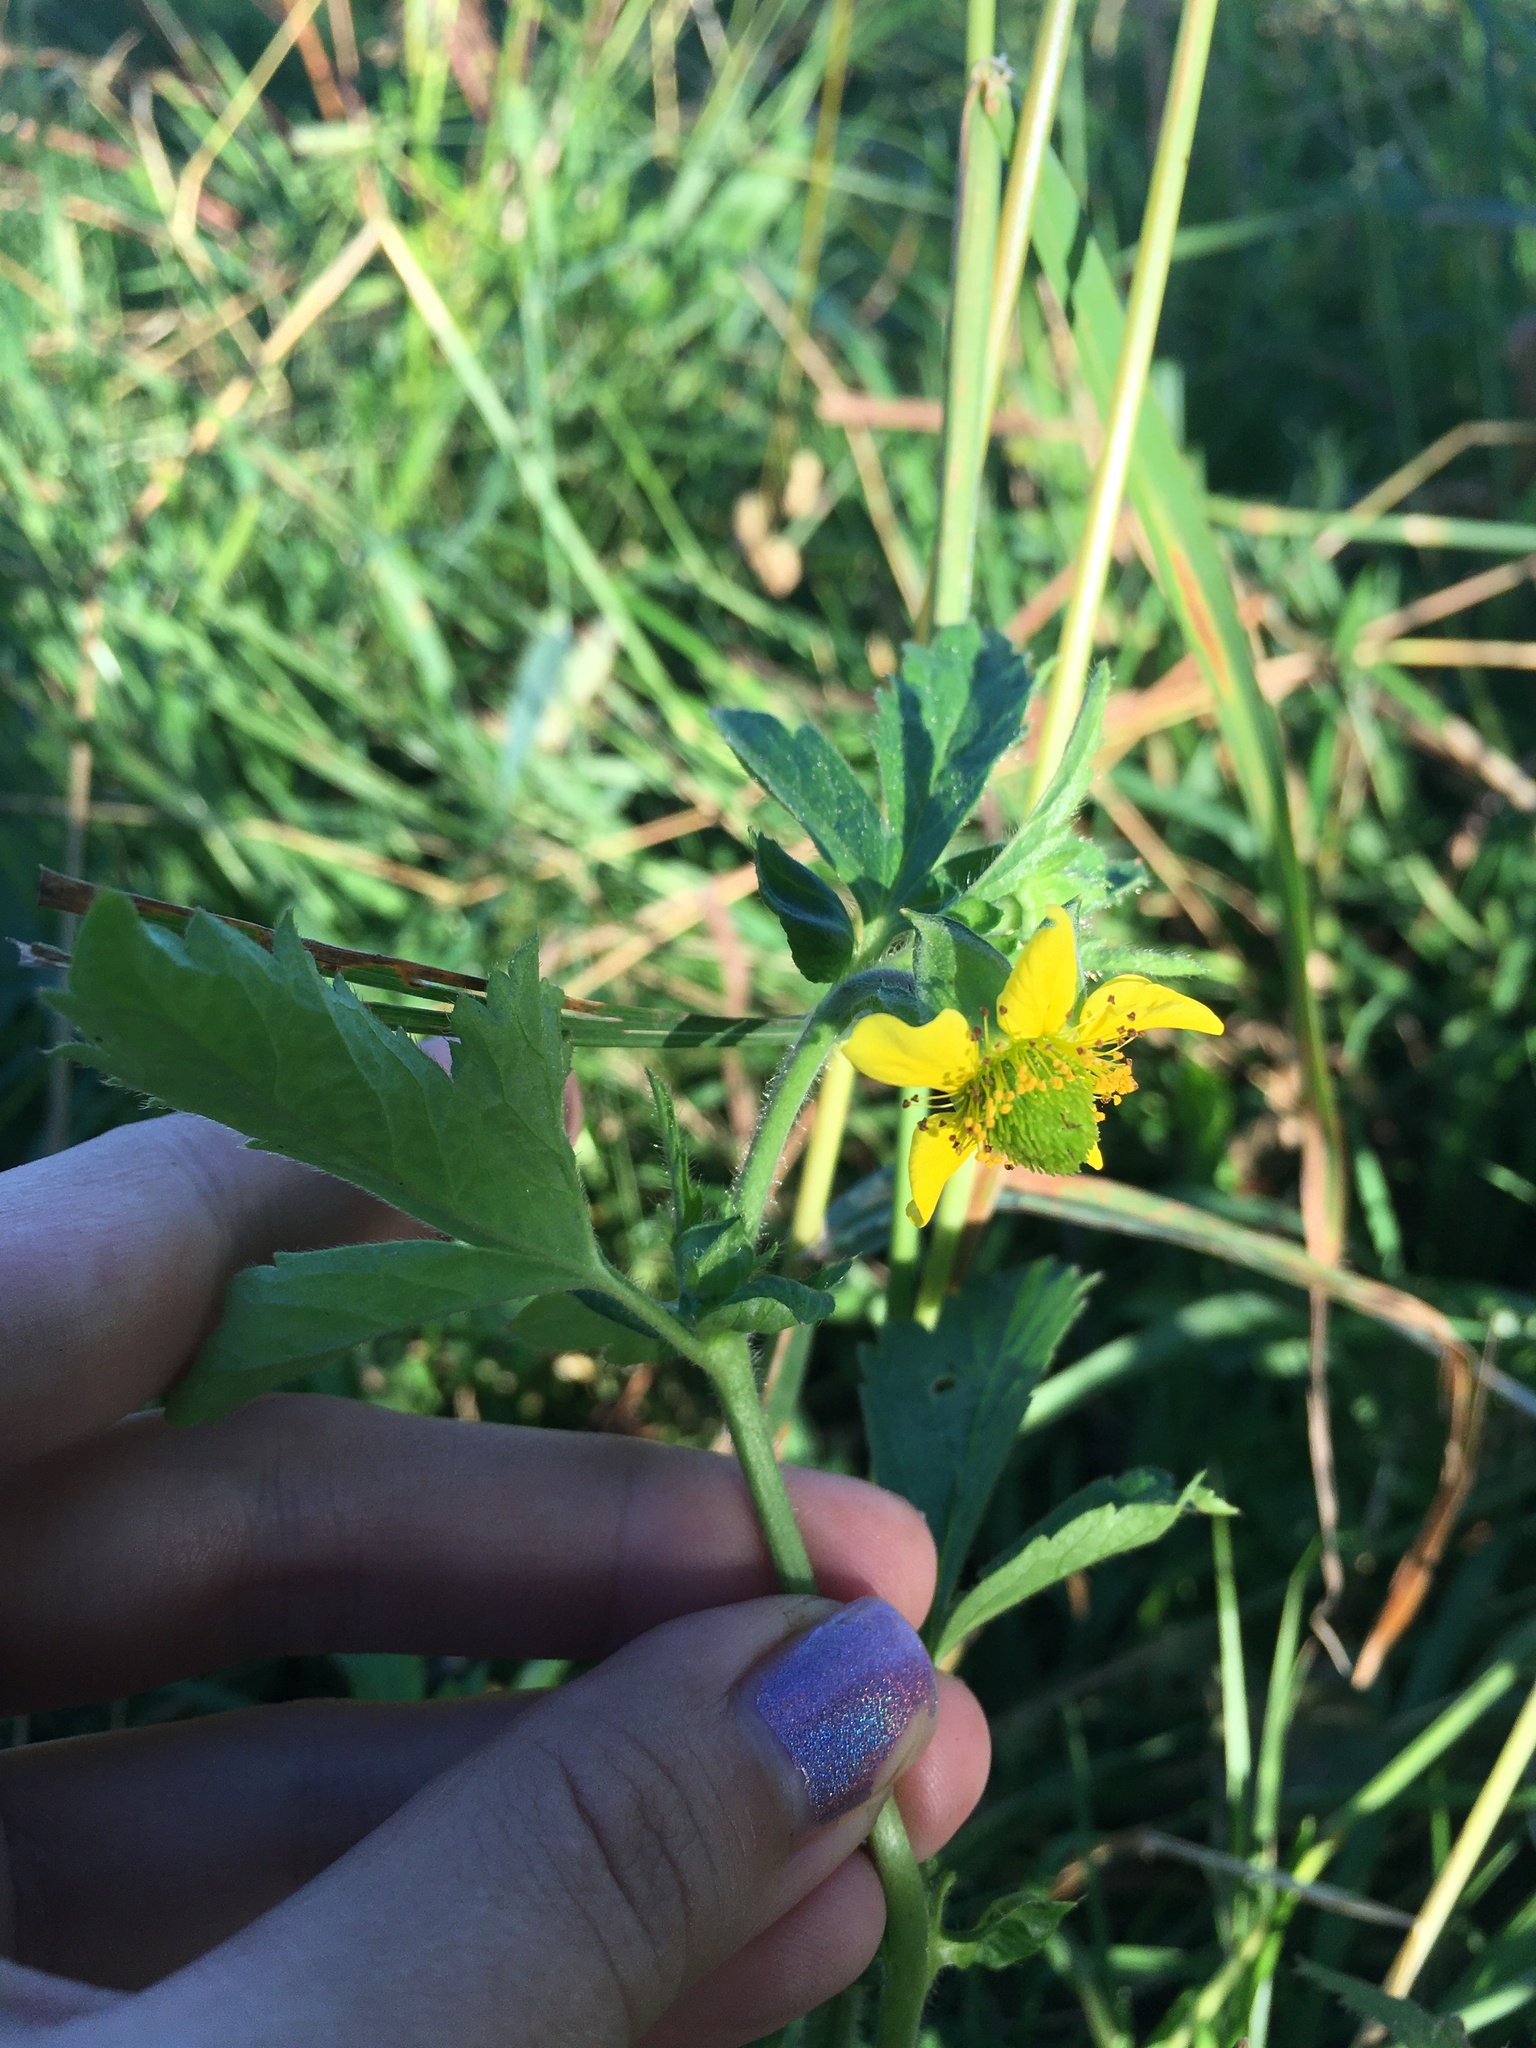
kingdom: Plantae
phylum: Tracheophyta
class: Magnoliopsida
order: Rosales
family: Rosaceae
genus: Geum
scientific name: Geum aleppicum
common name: Yellow avens
